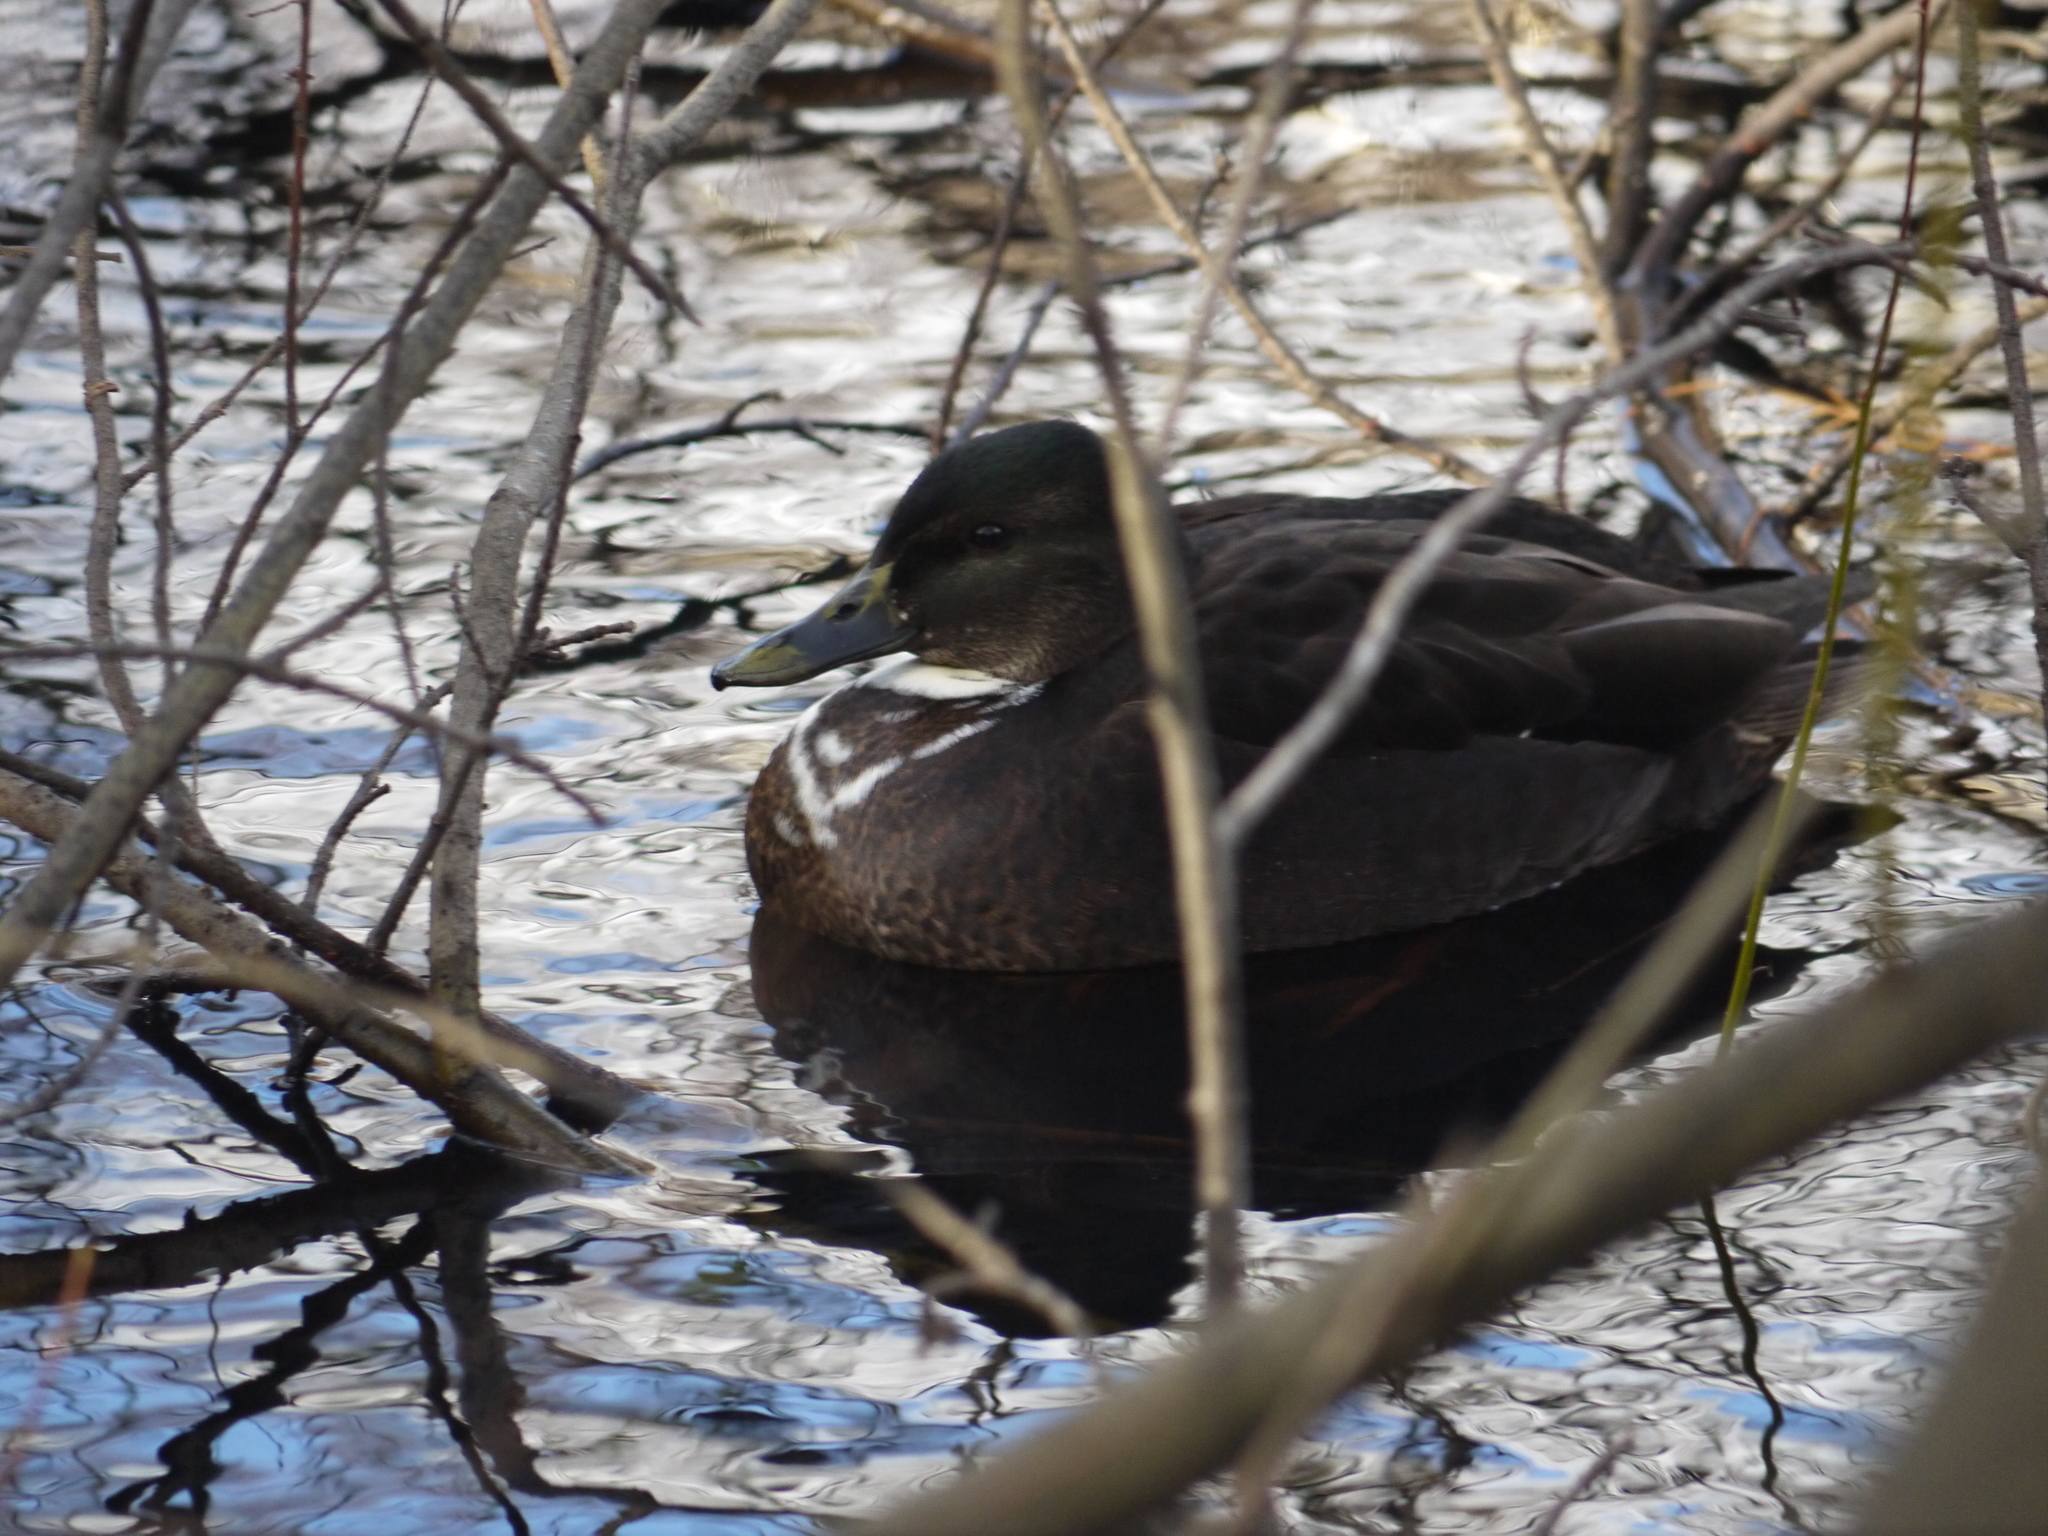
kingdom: Animalia
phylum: Chordata
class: Aves
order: Anseriformes
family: Anatidae
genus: Anas
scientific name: Anas platyrhynchos
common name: Mallard
